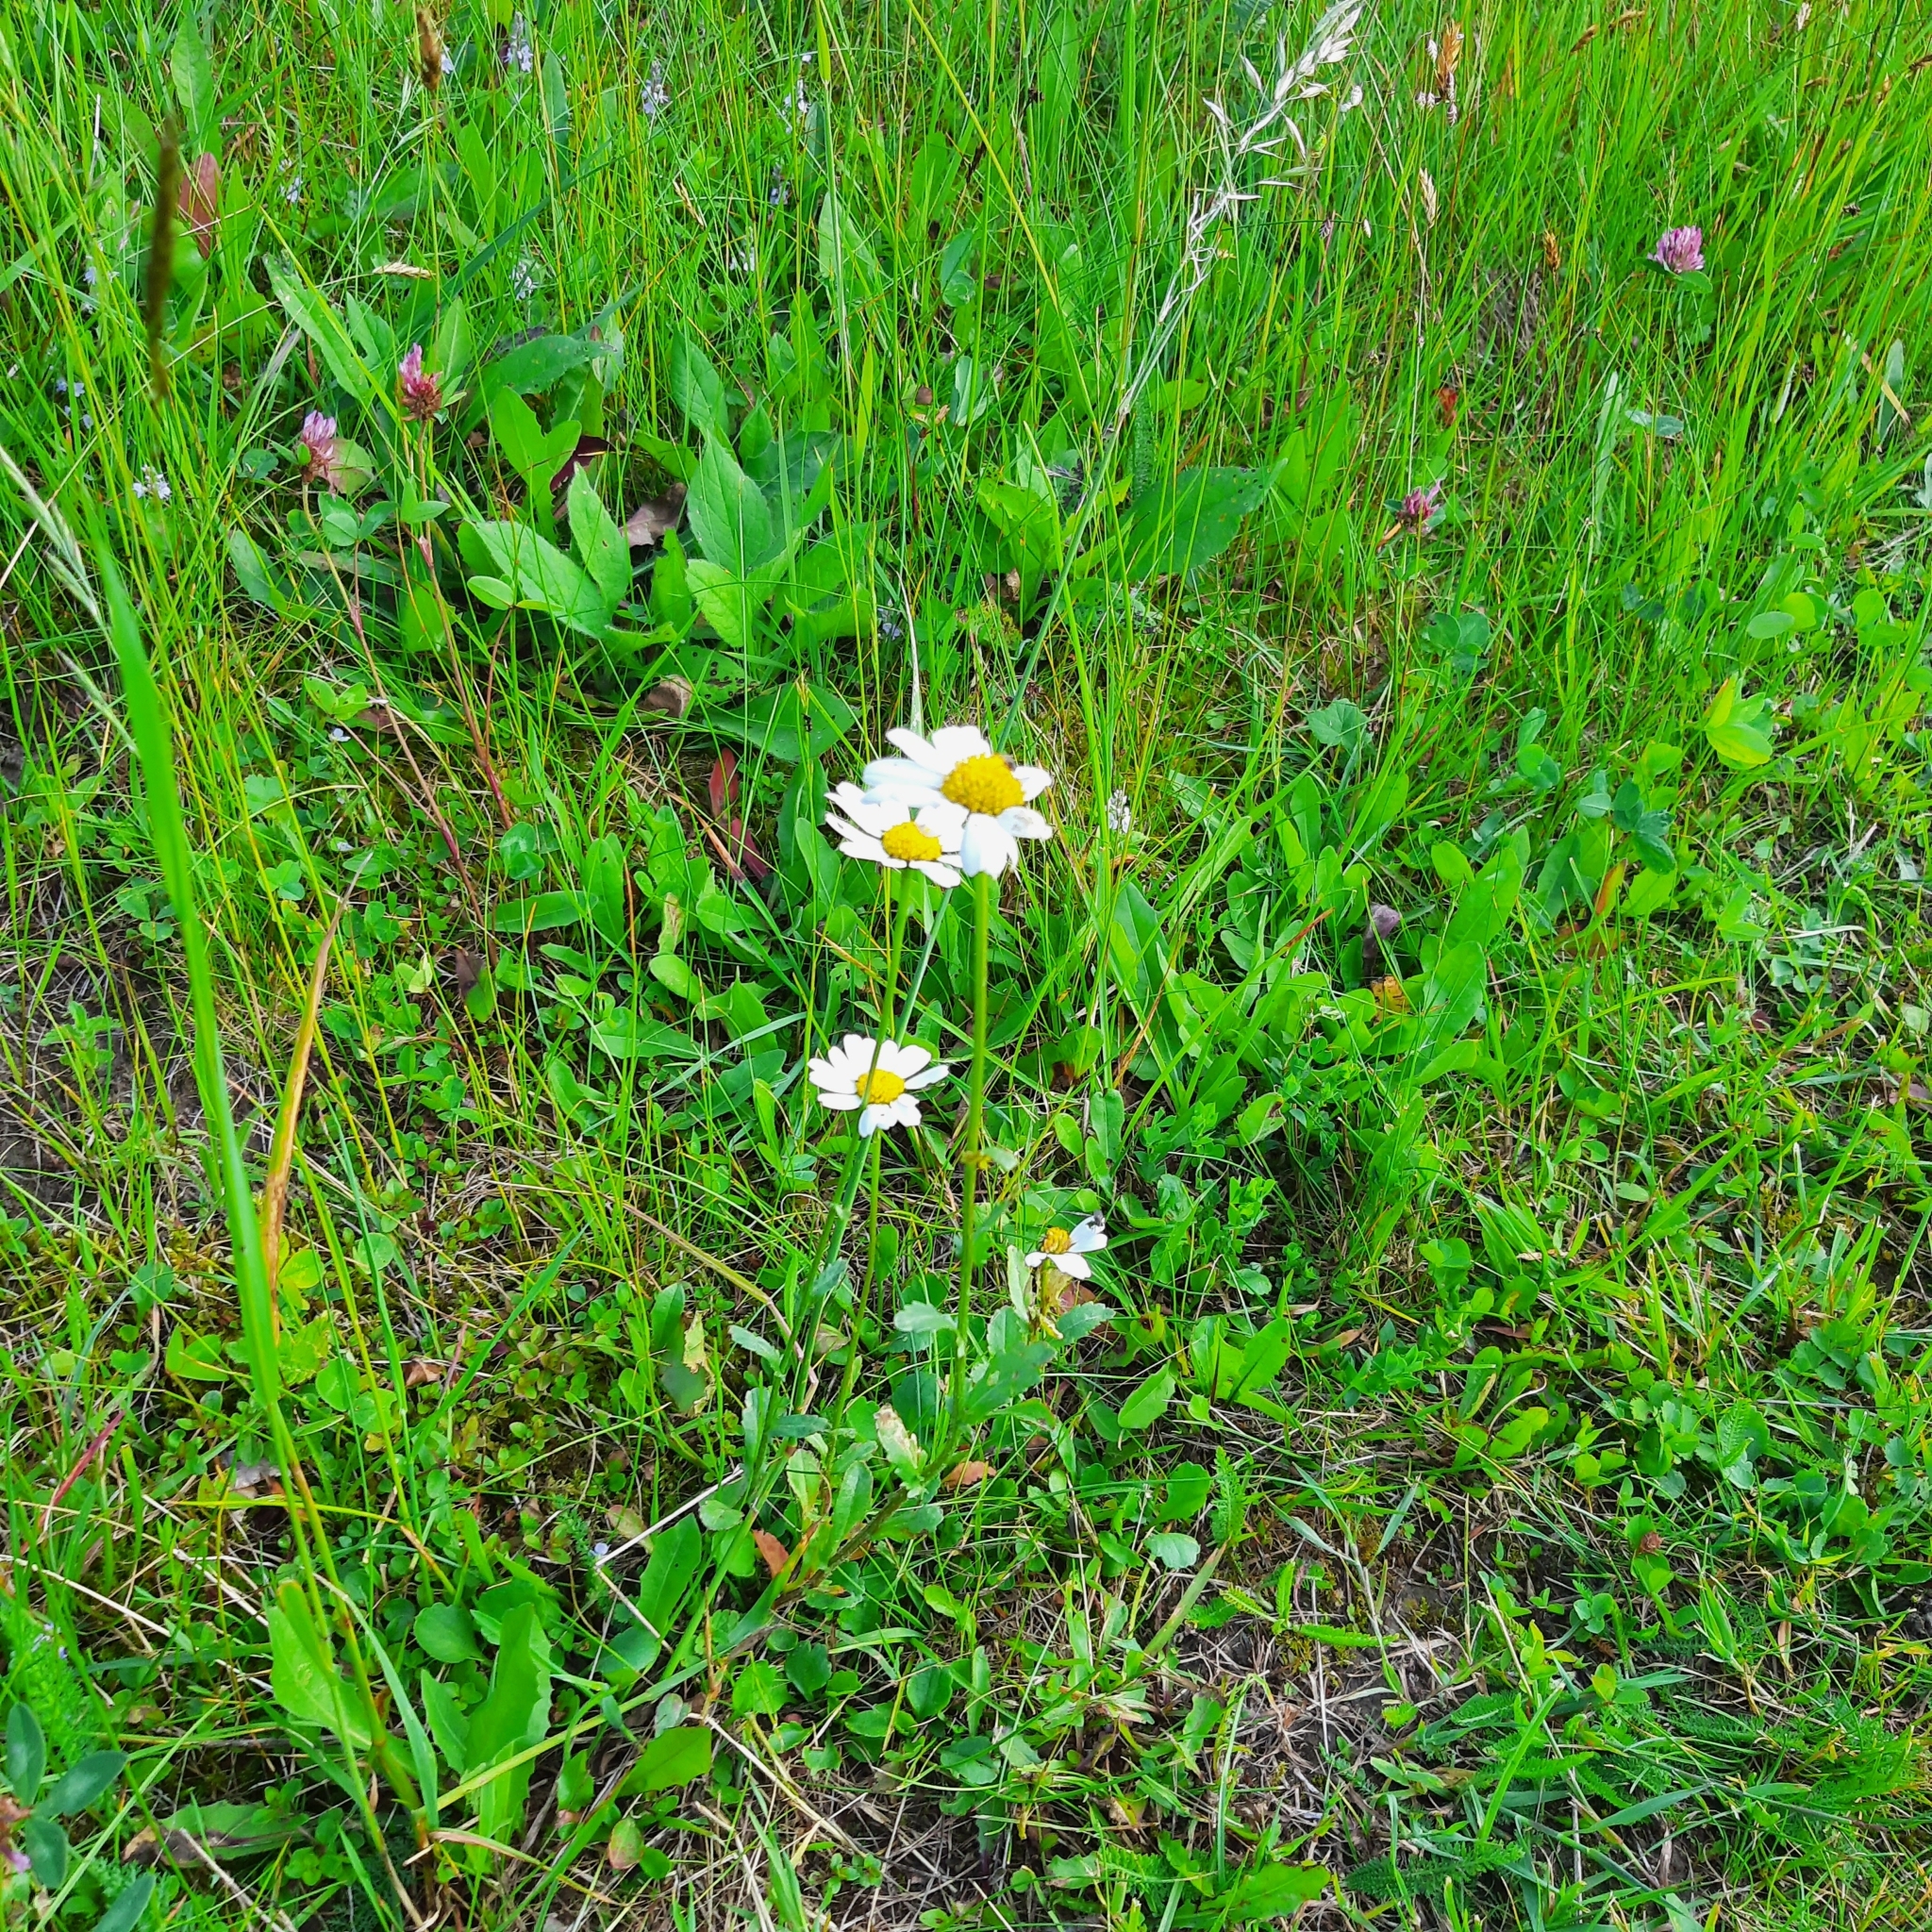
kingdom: Plantae
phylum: Tracheophyta
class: Magnoliopsida
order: Asterales
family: Asteraceae
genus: Leucanthemum
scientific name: Leucanthemum
